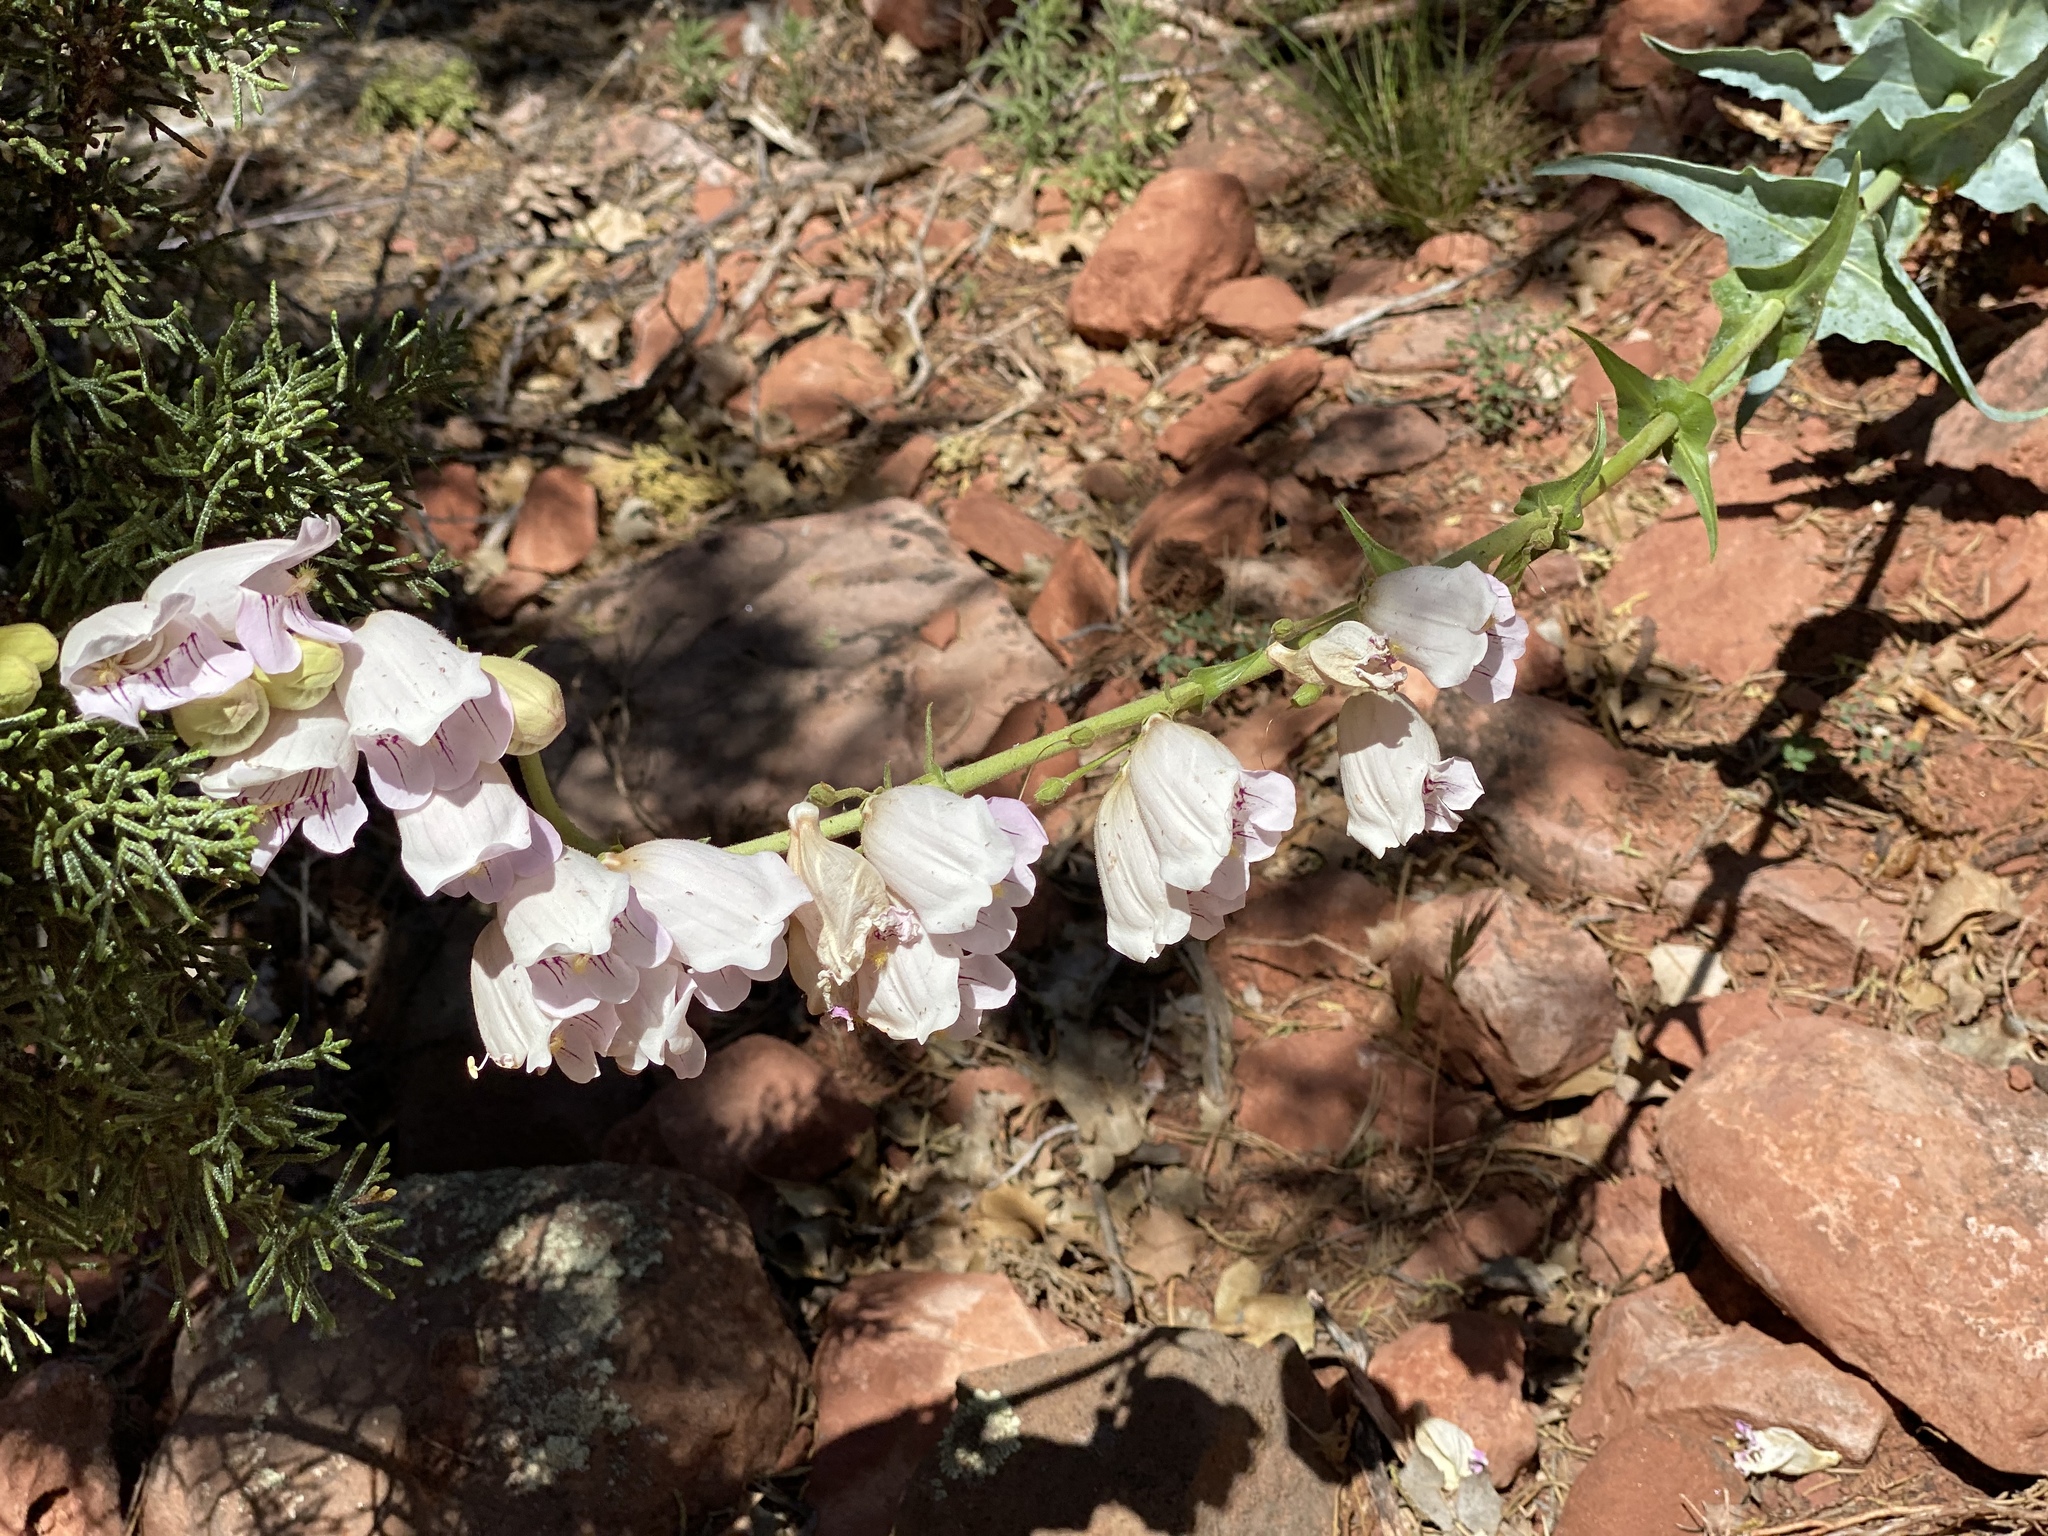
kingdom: Plantae
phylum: Tracheophyta
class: Magnoliopsida
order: Lamiales
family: Plantaginaceae
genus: Penstemon
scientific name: Penstemon palmeri
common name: Palmer penstemon
